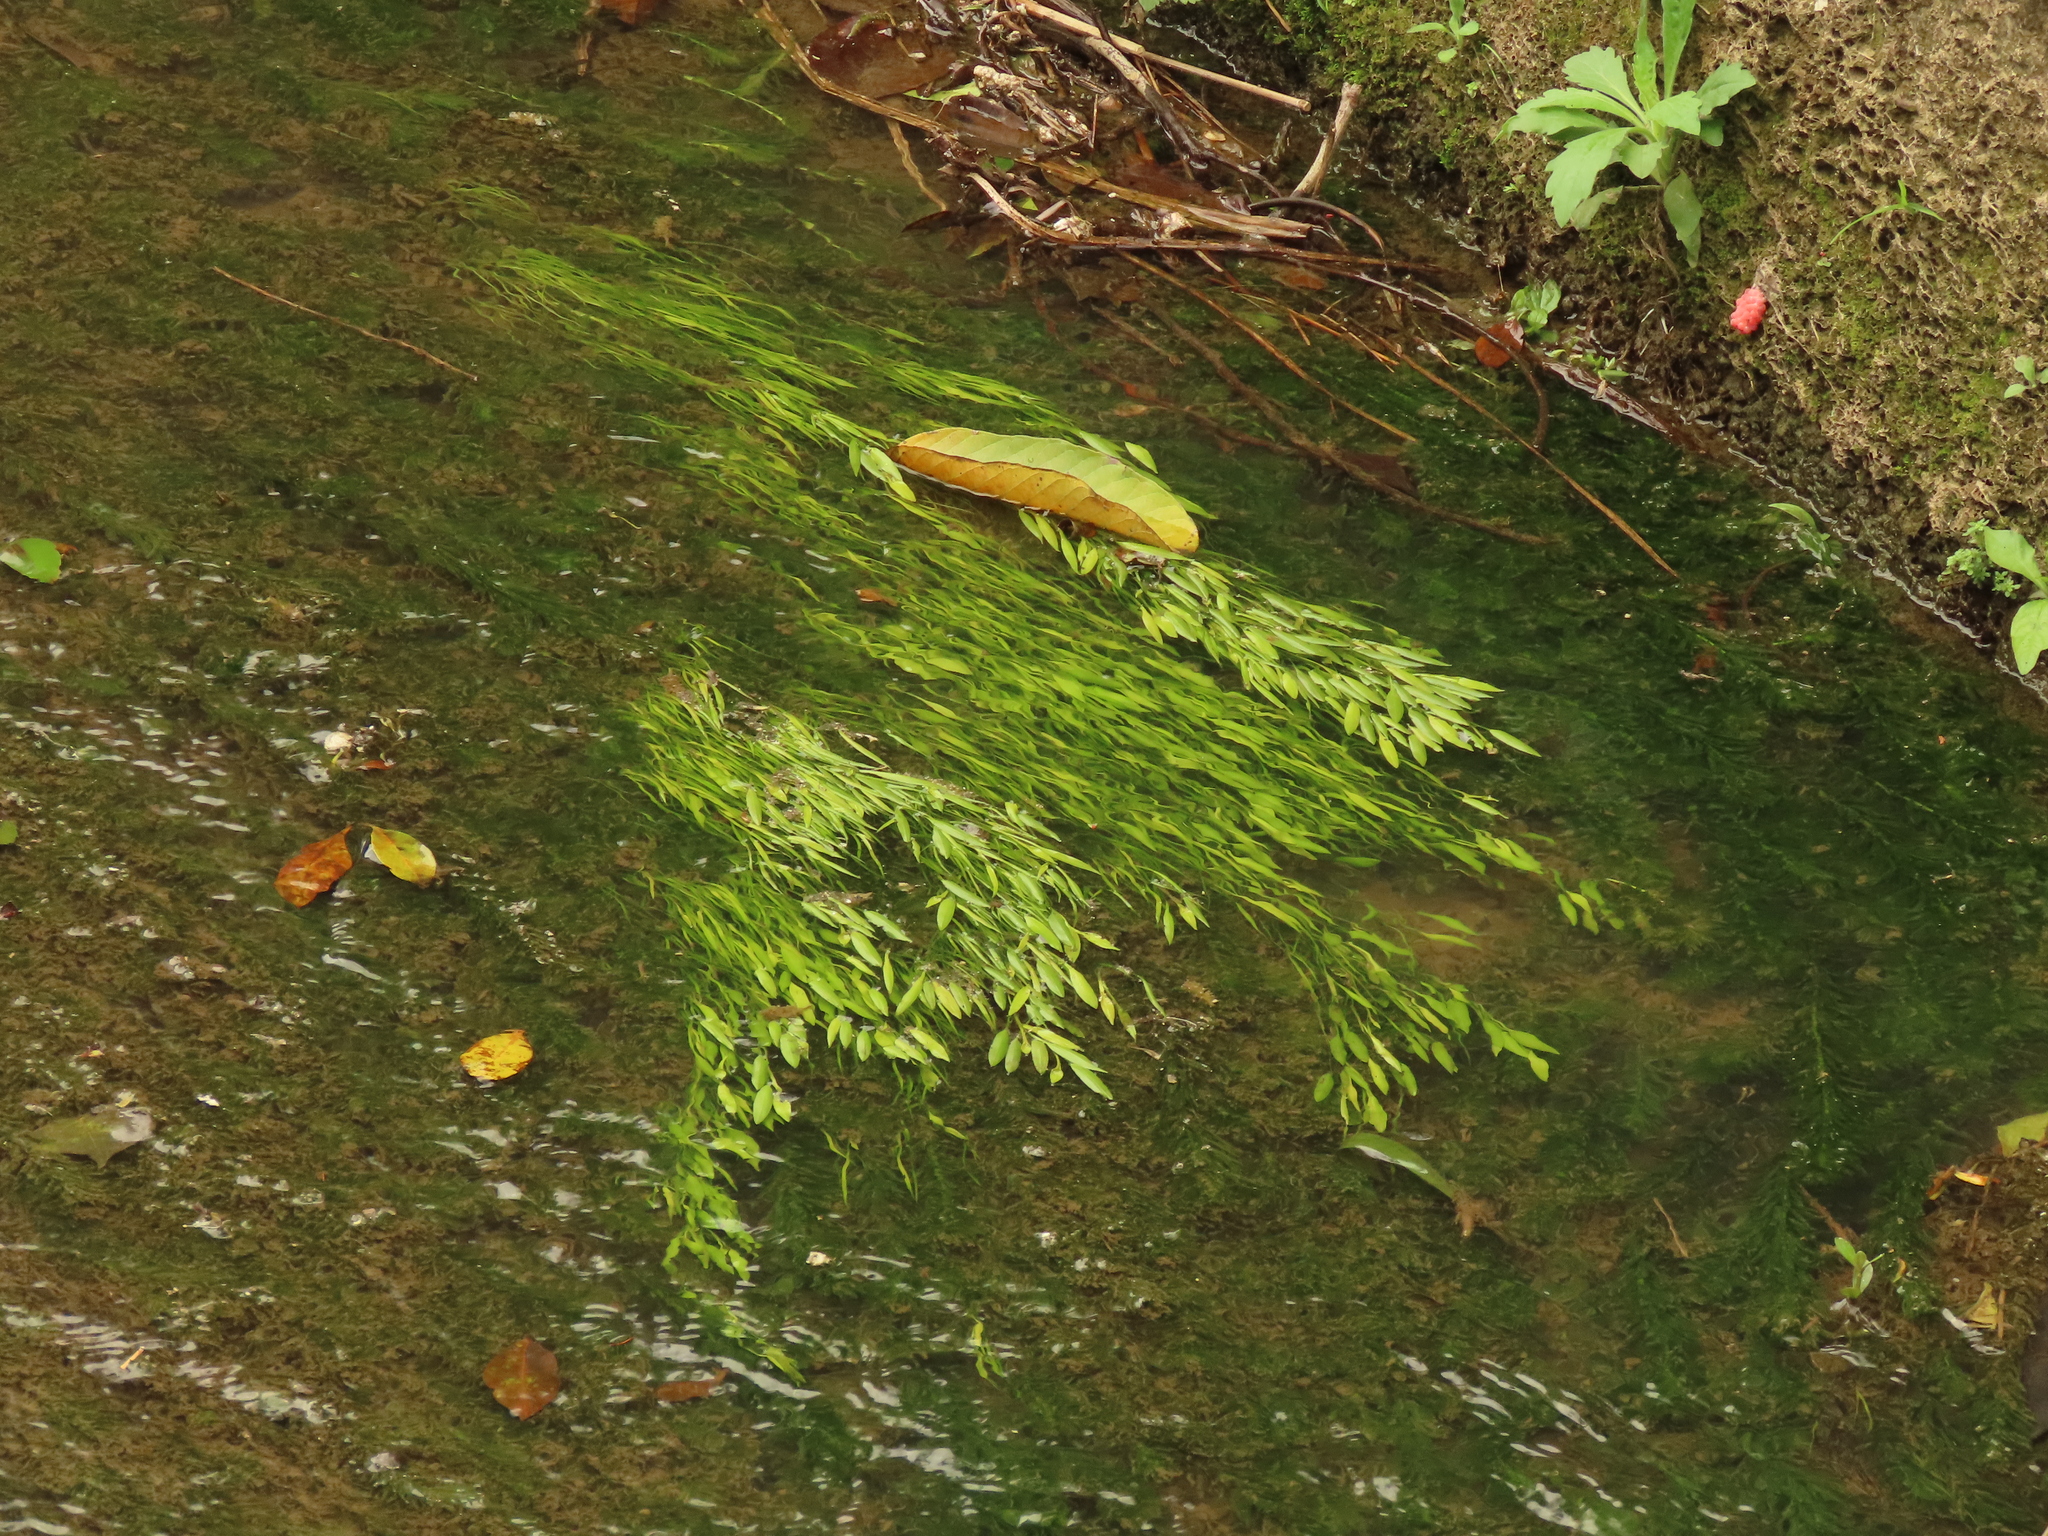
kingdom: Plantae
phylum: Tracheophyta
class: Liliopsida
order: Alismatales
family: Potamogetonaceae
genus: Potamogeton
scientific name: Potamogeton octandrus
